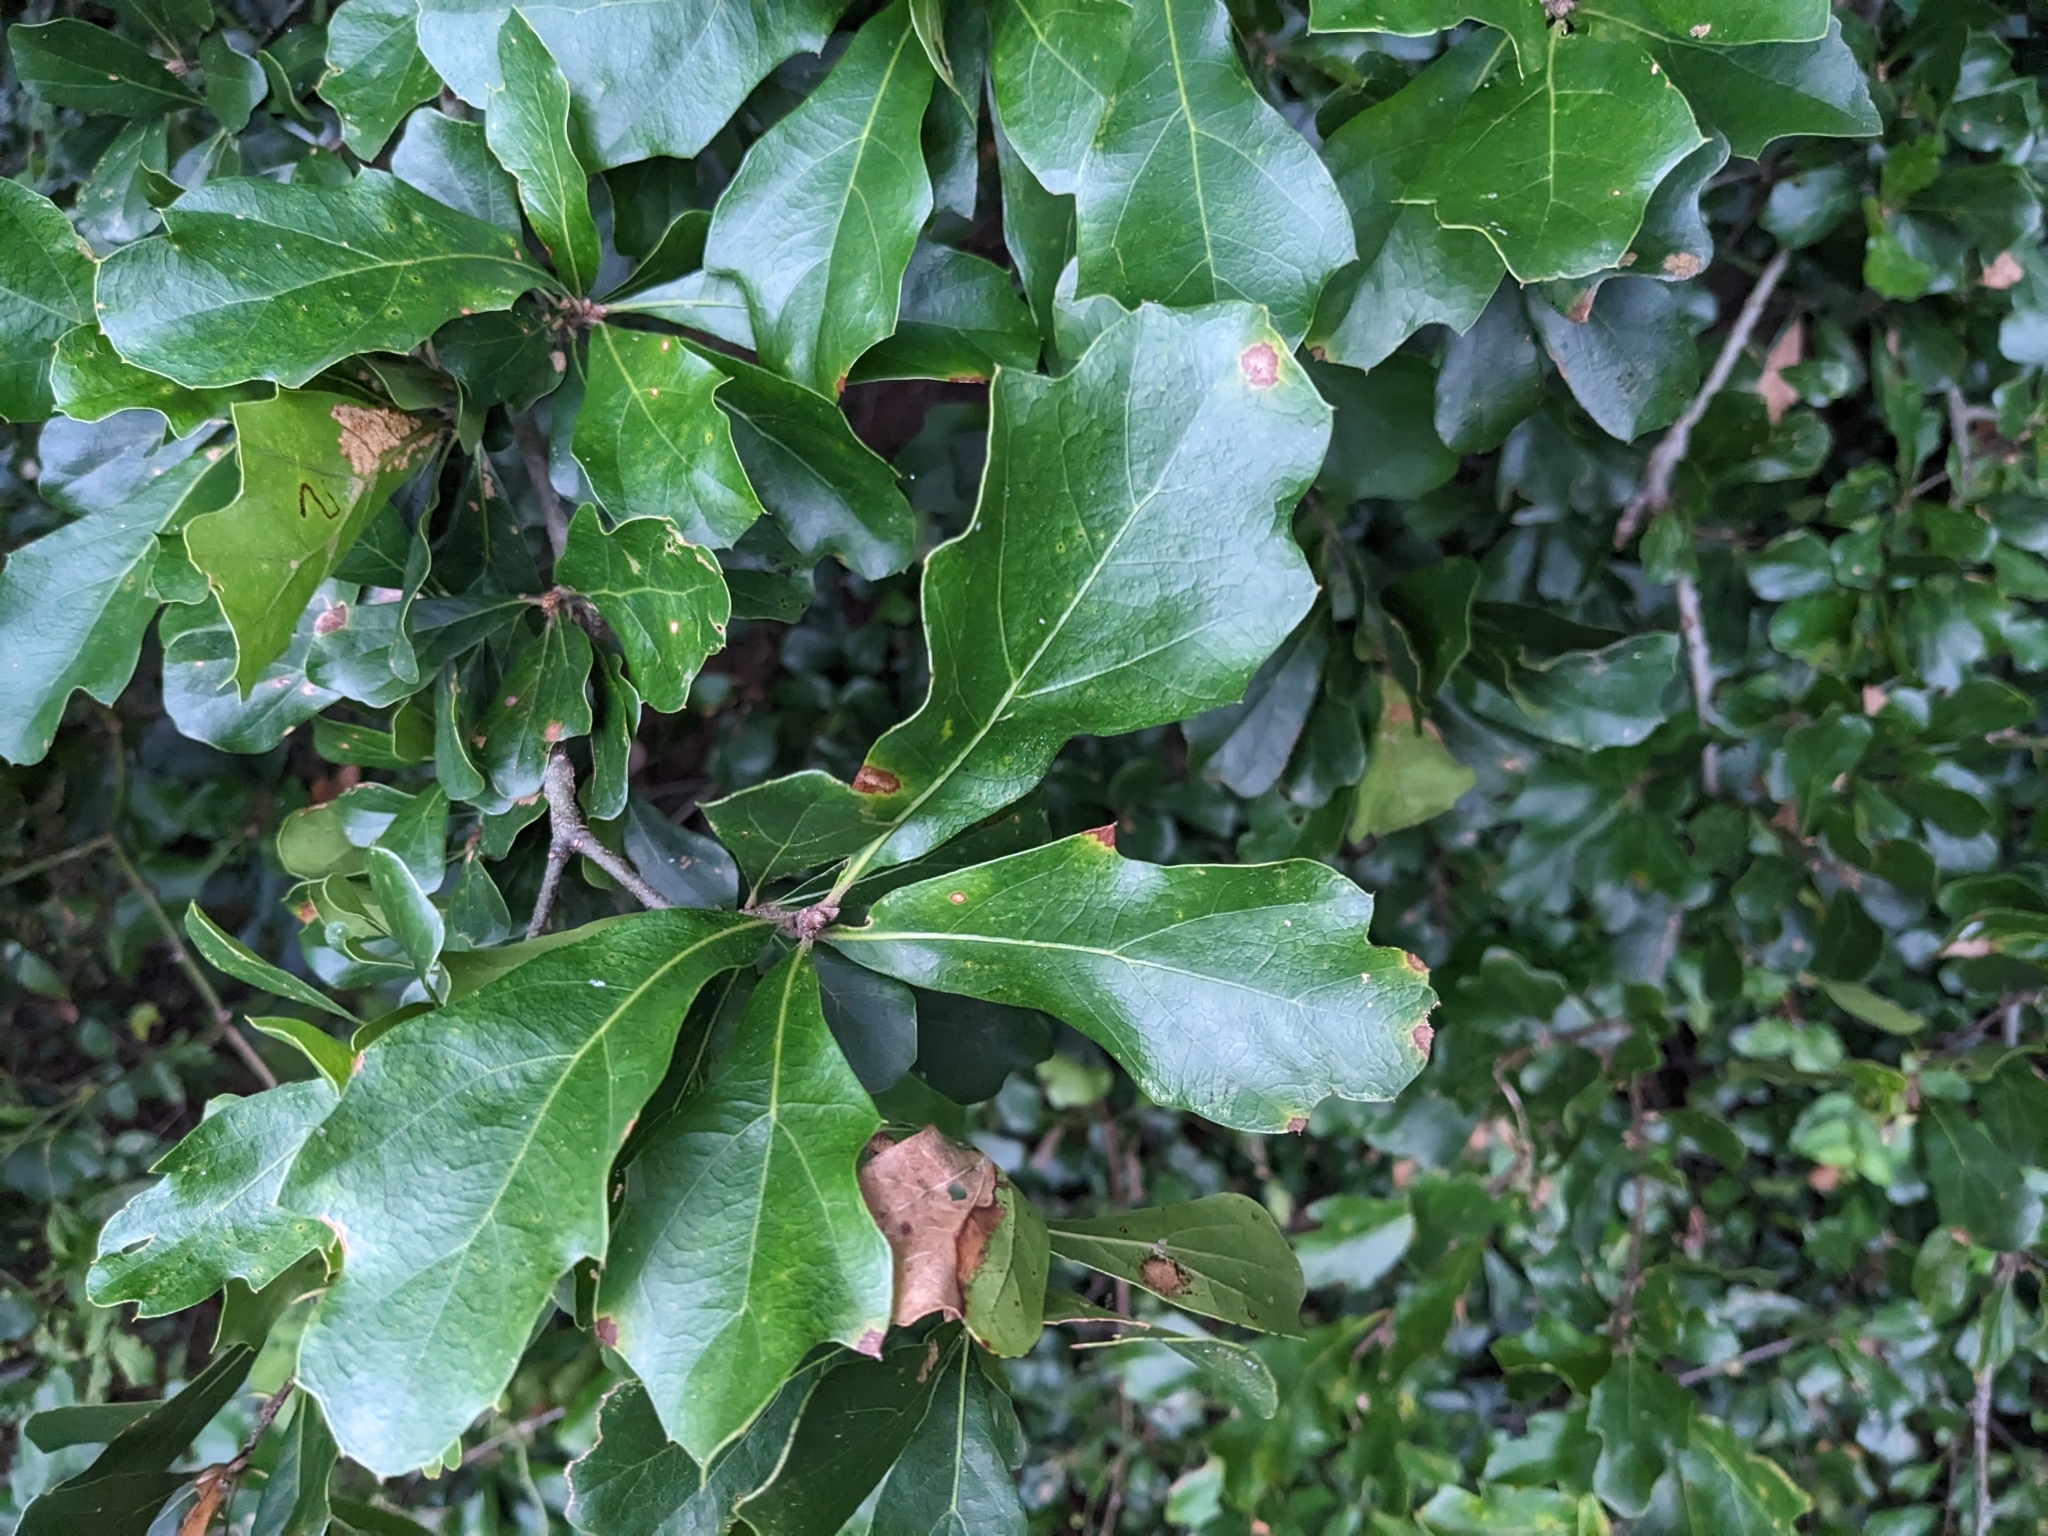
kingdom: Plantae
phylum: Tracheophyta
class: Magnoliopsida
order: Fagales
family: Fagaceae
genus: Quercus
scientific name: Quercus nigra
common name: Water oak
